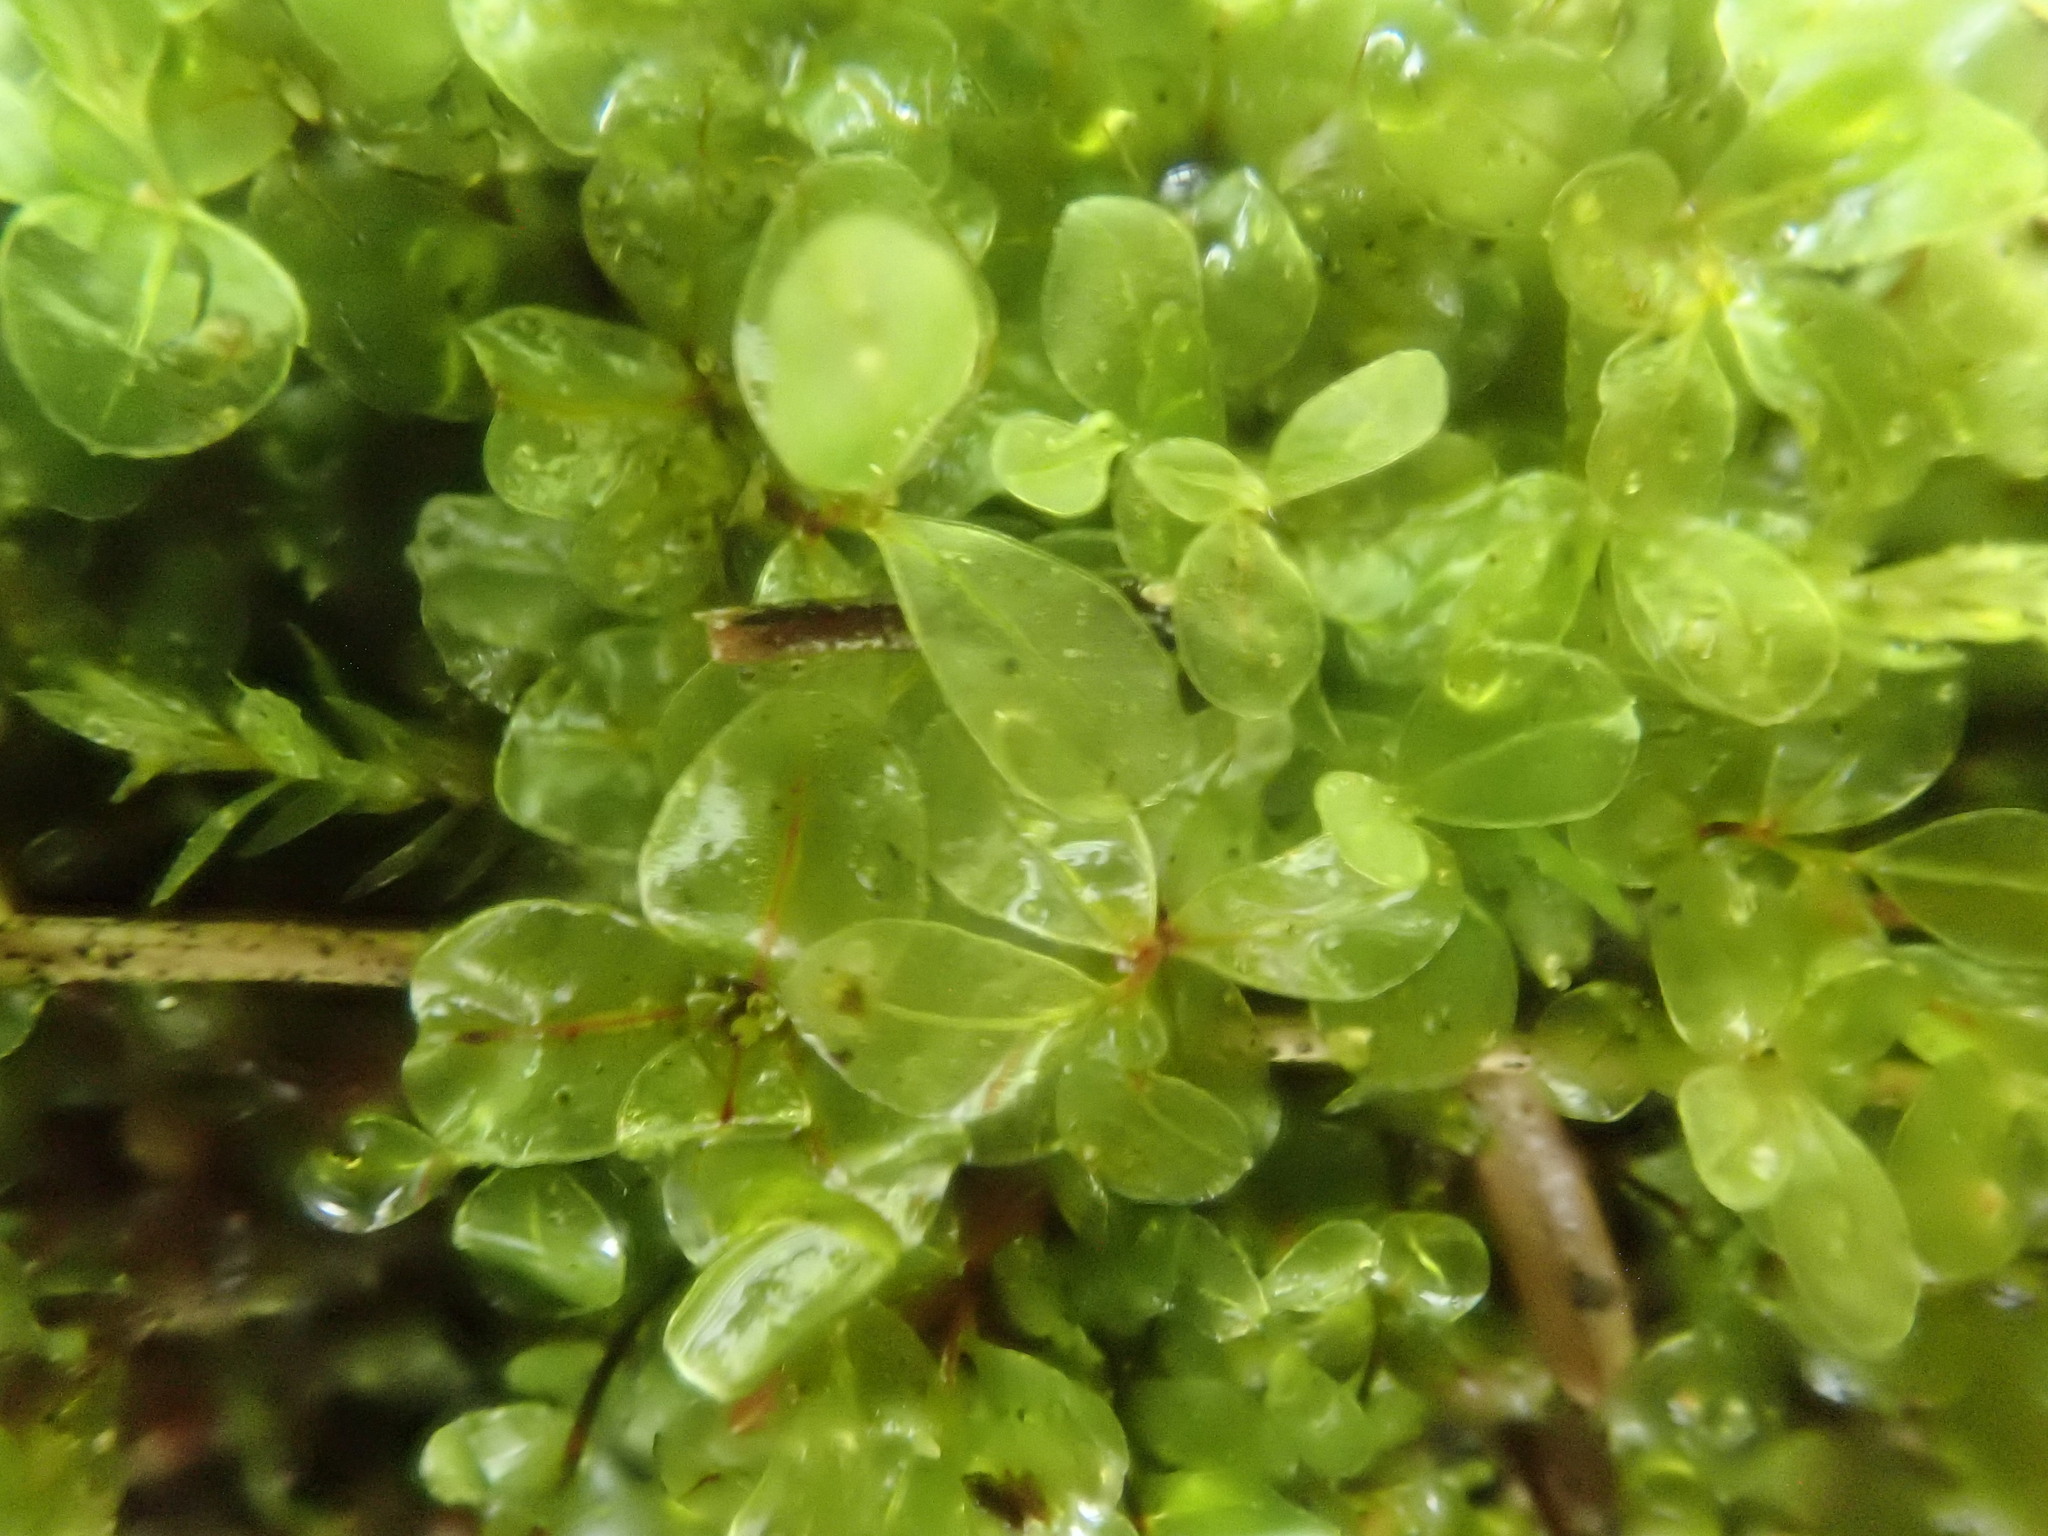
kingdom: Plantae
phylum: Bryophyta
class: Bryopsida
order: Bryales
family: Mniaceae
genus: Rhizomnium
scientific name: Rhizomnium punctatum
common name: Dotted leafy moss
